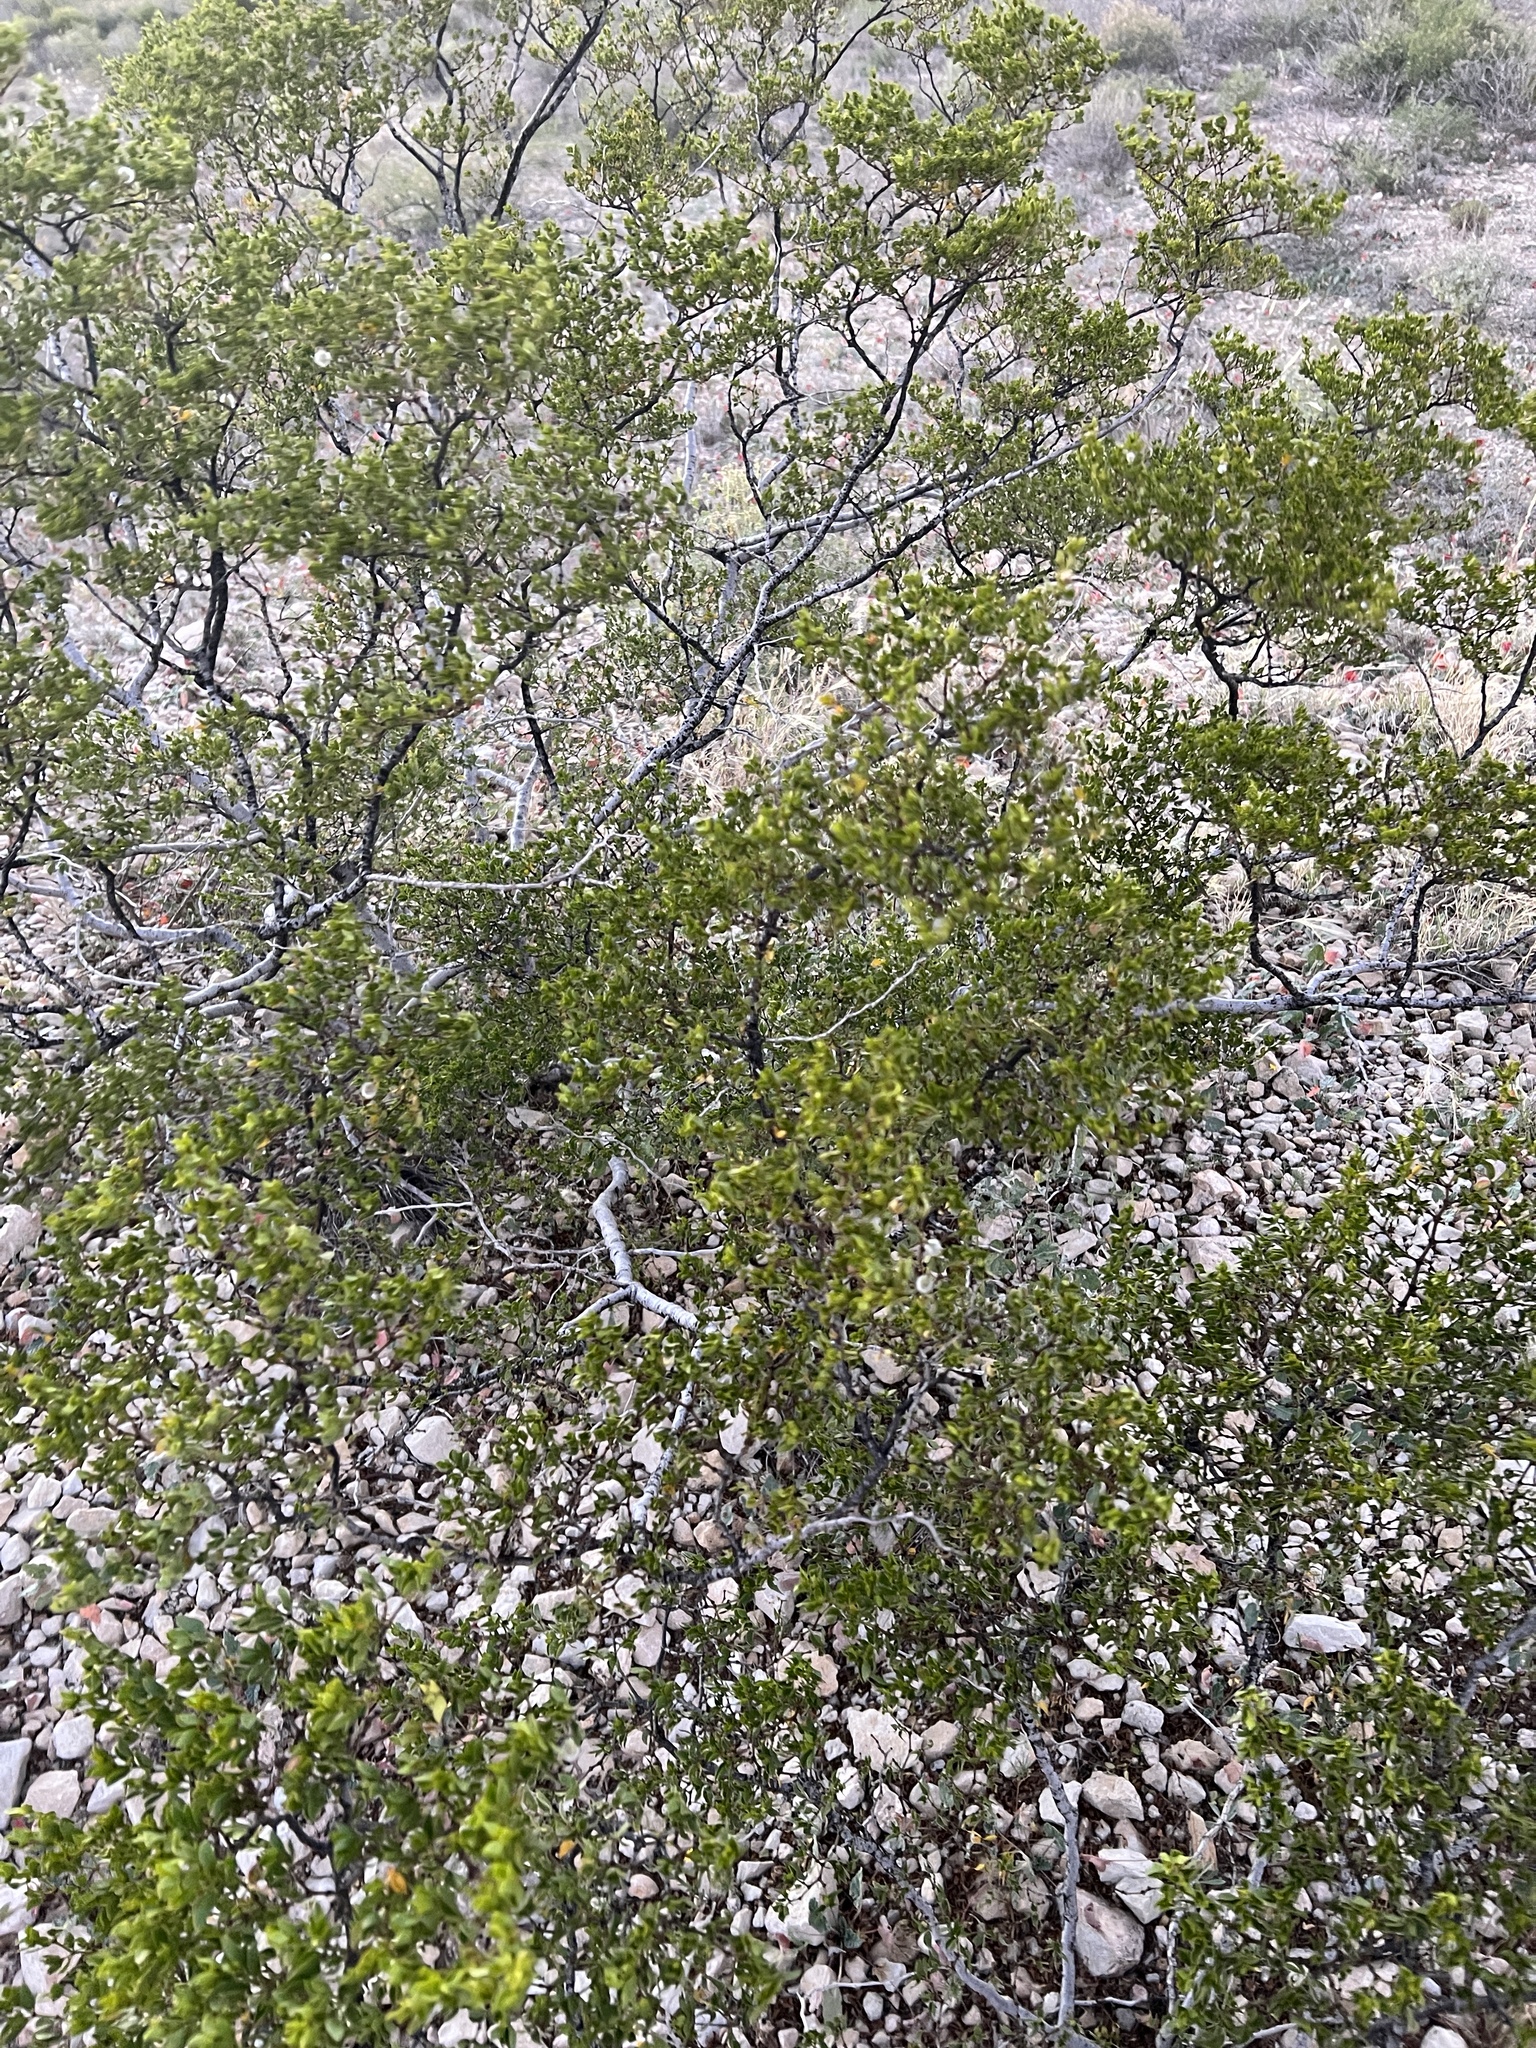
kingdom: Plantae
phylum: Tracheophyta
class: Magnoliopsida
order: Zygophyllales
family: Zygophyllaceae
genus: Larrea
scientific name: Larrea tridentata
